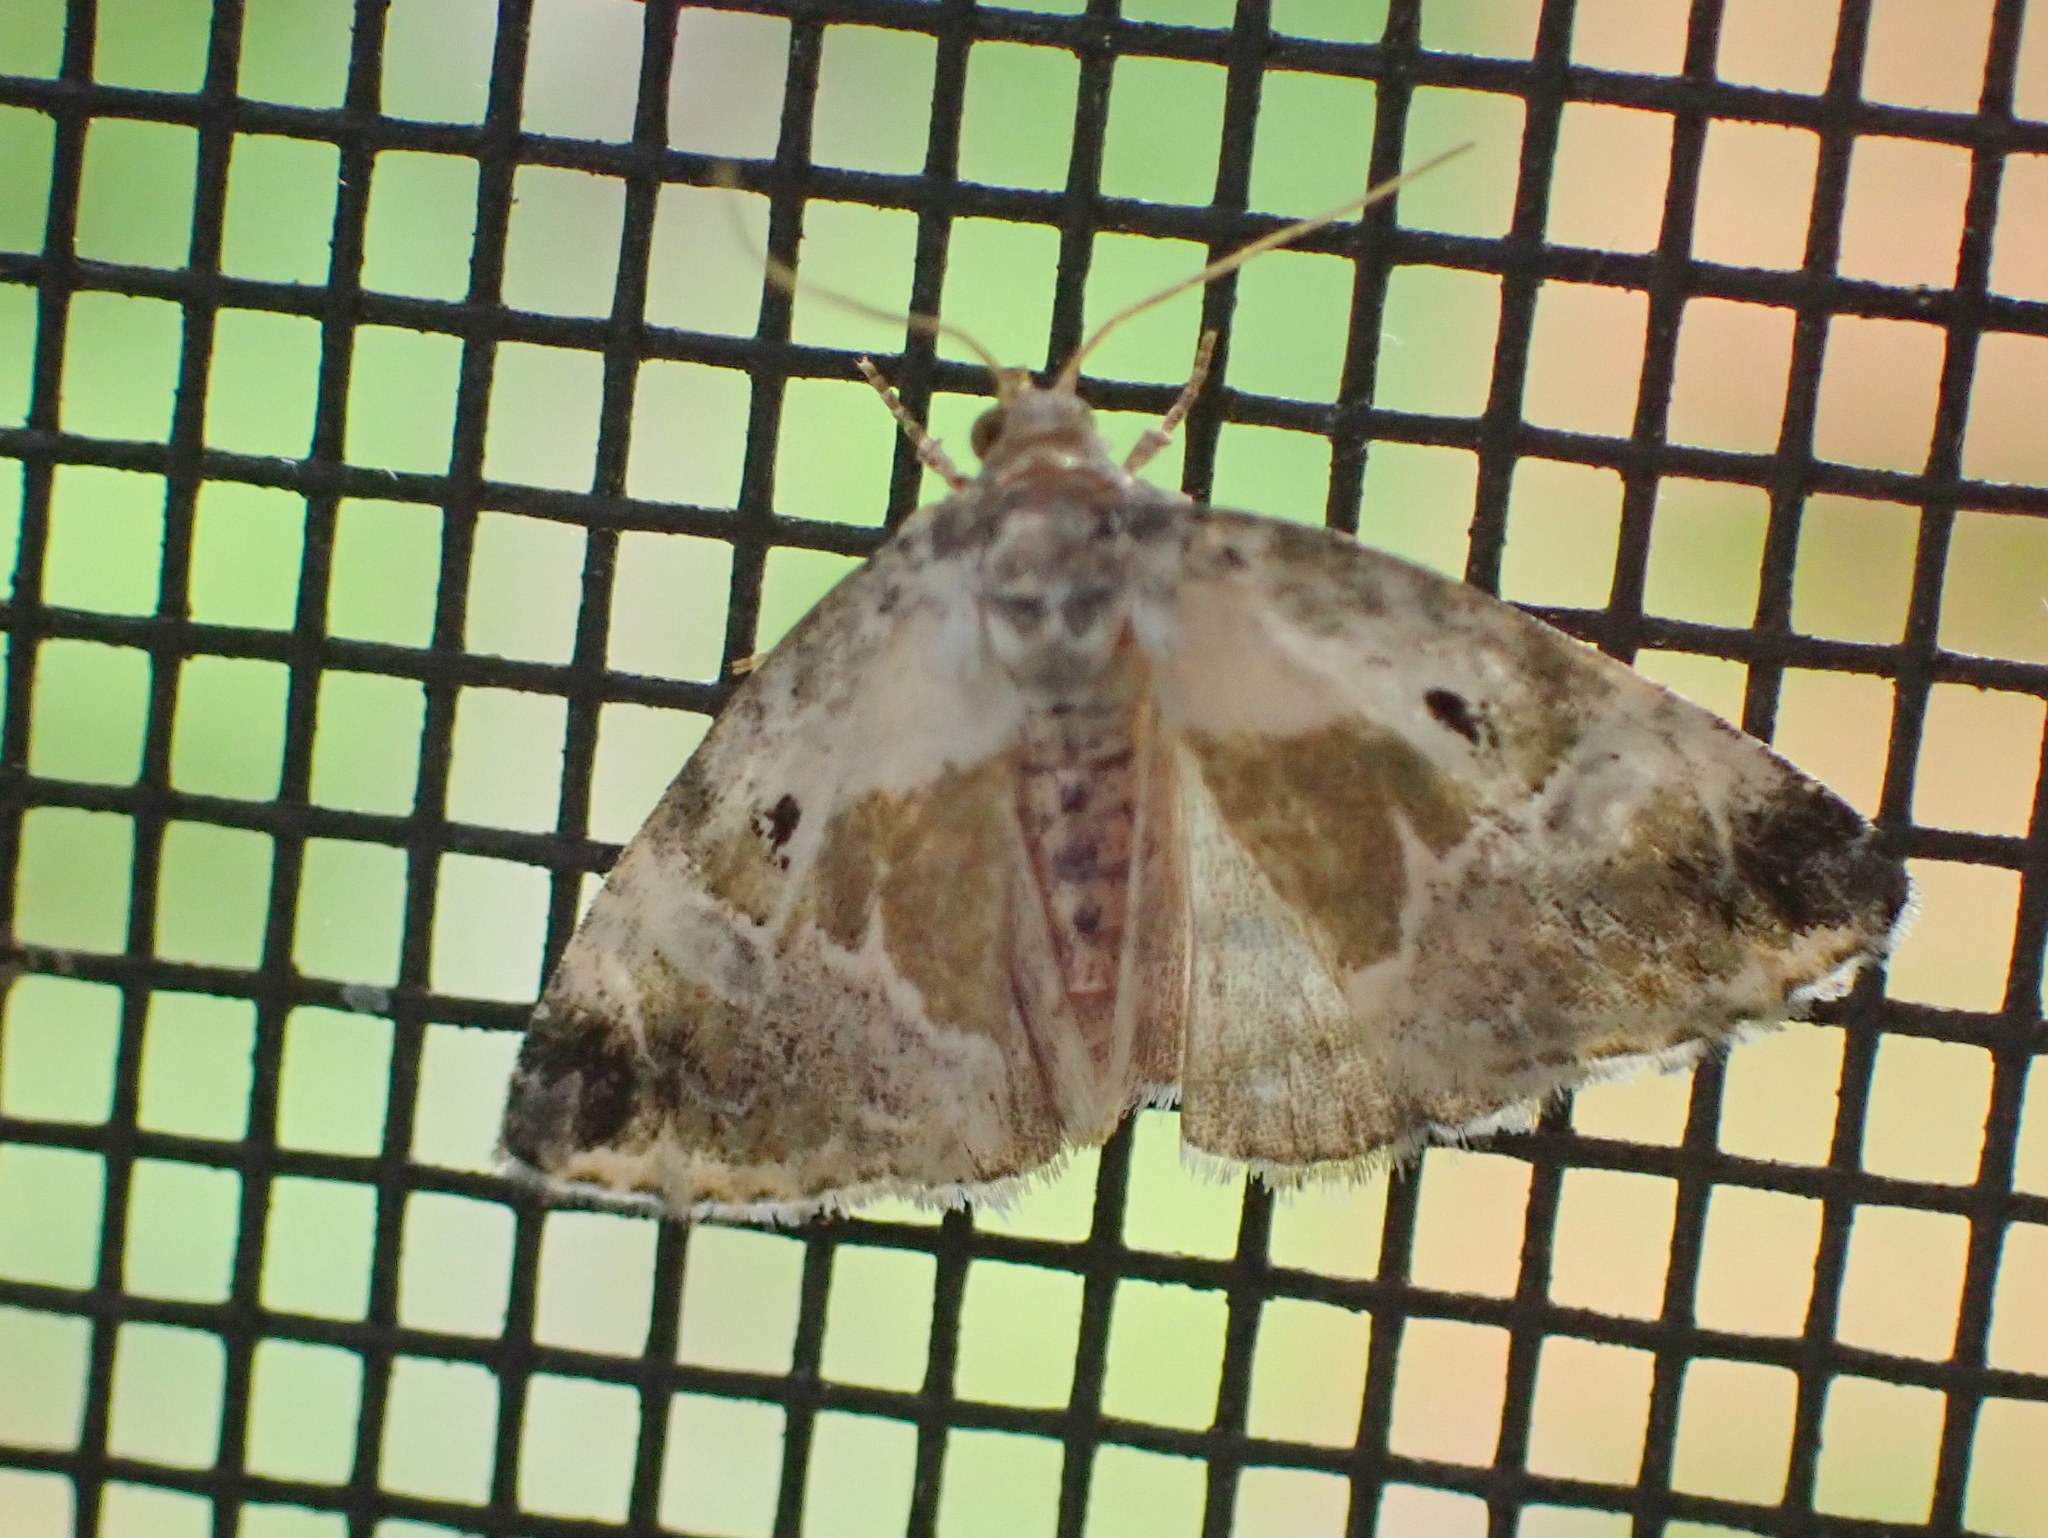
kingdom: Animalia
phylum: Arthropoda
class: Insecta
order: Lepidoptera
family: Noctuidae
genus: Maliattha
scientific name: Maliattha synochitis
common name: Black-dotted glyph
